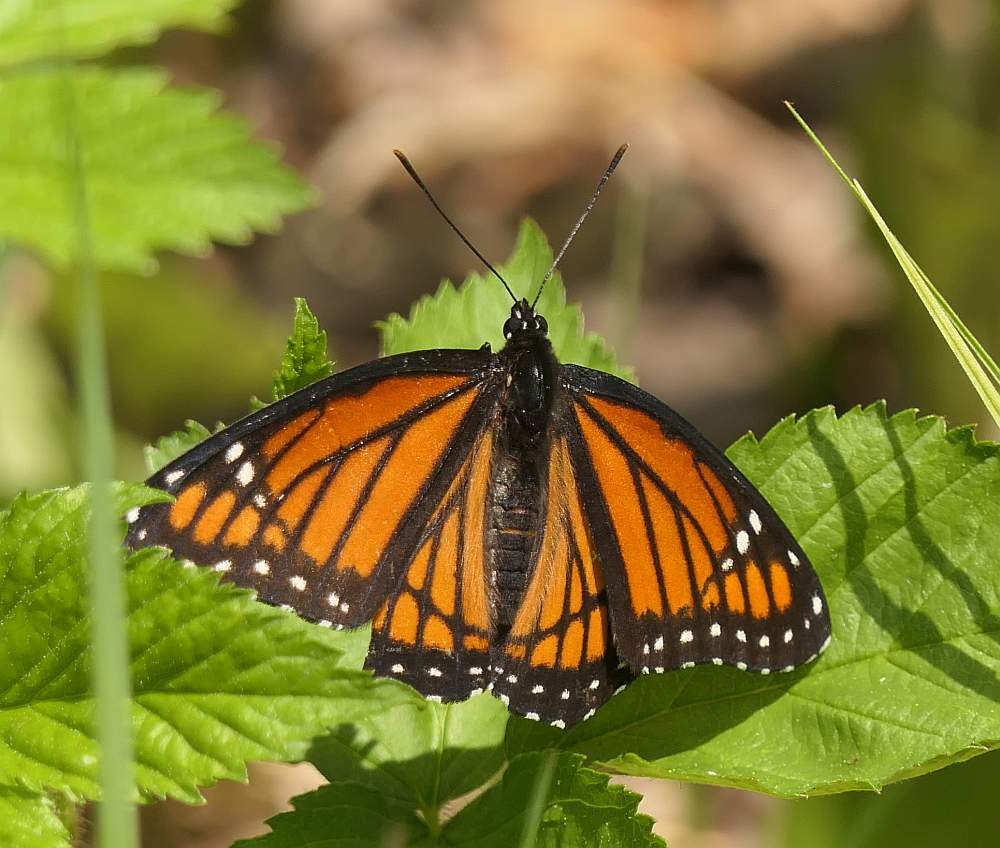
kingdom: Animalia
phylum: Arthropoda
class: Insecta
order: Lepidoptera
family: Nymphalidae
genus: Limenitis
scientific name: Limenitis archippus
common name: Viceroy
